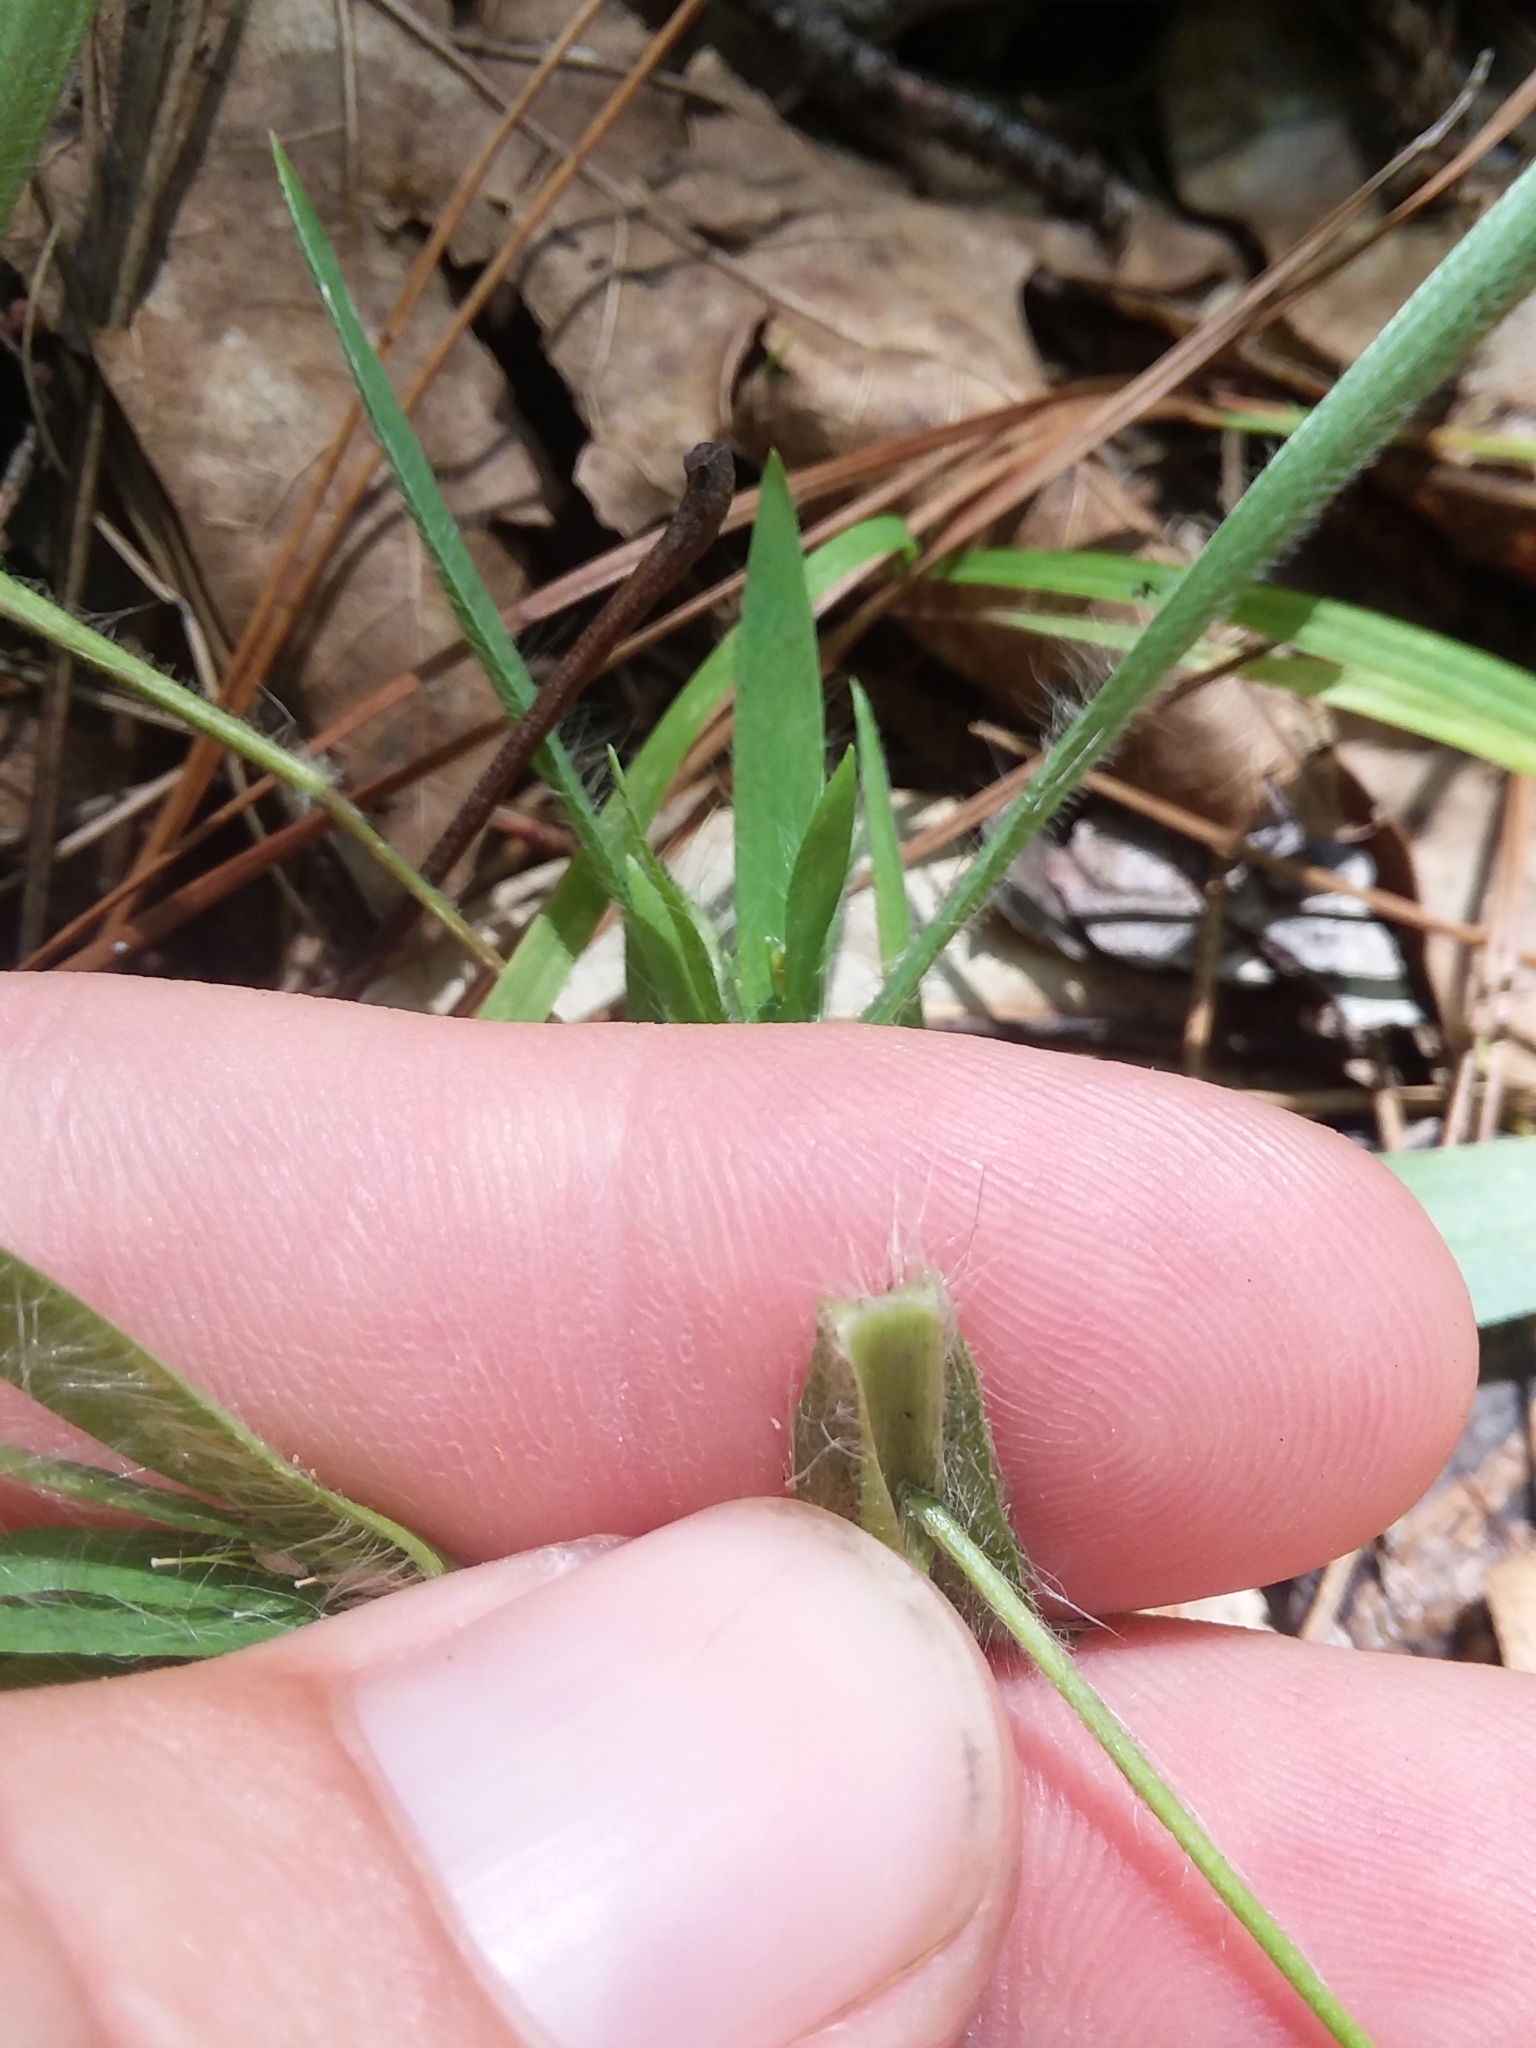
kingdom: Plantae
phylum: Tracheophyta
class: Liliopsida
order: Poales
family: Poaceae
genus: Dichanthelium
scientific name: Dichanthelium acuminatum
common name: Hairy panic grass
